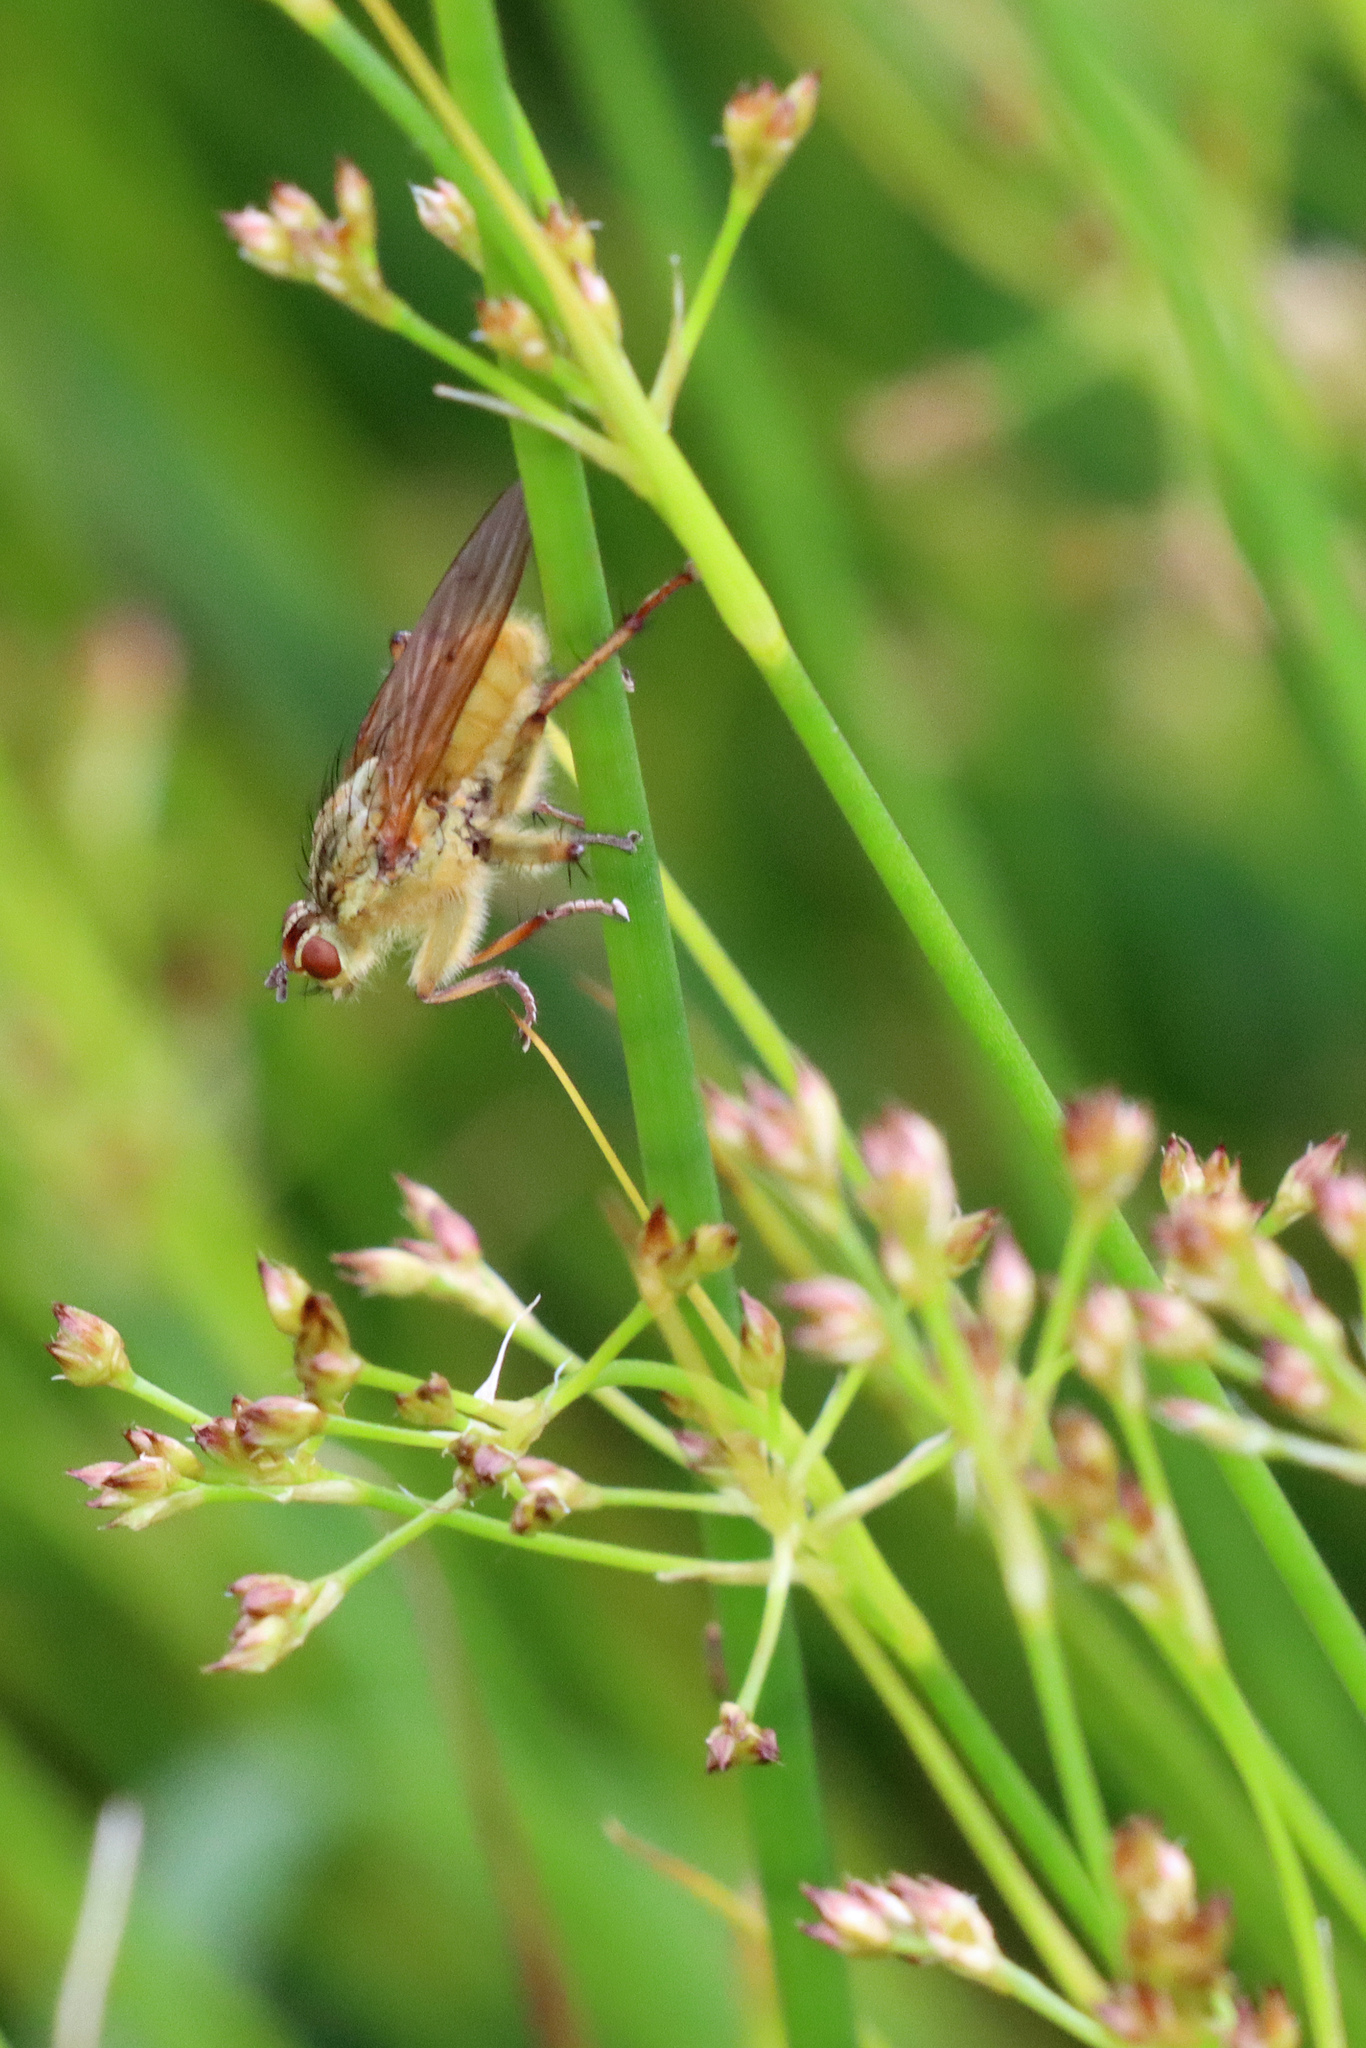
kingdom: Animalia
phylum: Arthropoda
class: Insecta
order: Diptera
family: Scathophagidae
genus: Scathophaga
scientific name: Scathophaga stercoraria
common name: Yellow dung fly
